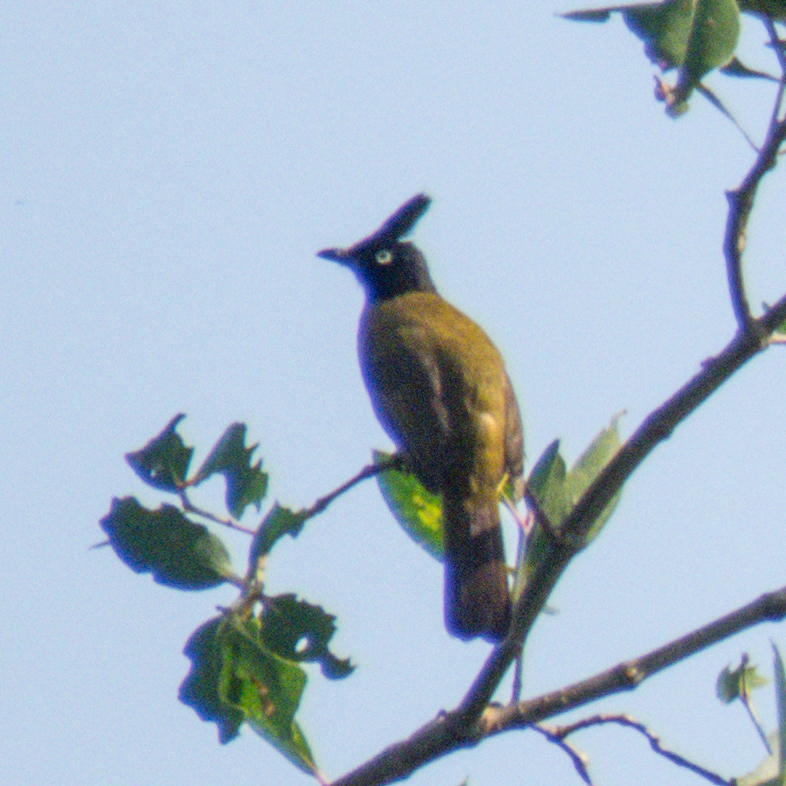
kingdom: Animalia
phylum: Chordata
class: Aves
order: Passeriformes
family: Pycnonotidae
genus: Pycnonotus
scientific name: Pycnonotus flaviventris
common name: Black-crested bulbul
